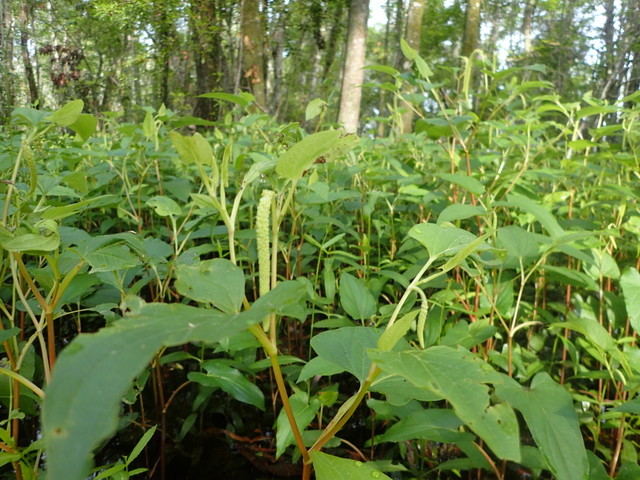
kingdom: Plantae
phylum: Tracheophyta
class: Magnoliopsida
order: Piperales
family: Saururaceae
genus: Saururus
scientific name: Saururus cernuus
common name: Lizard's-tail
